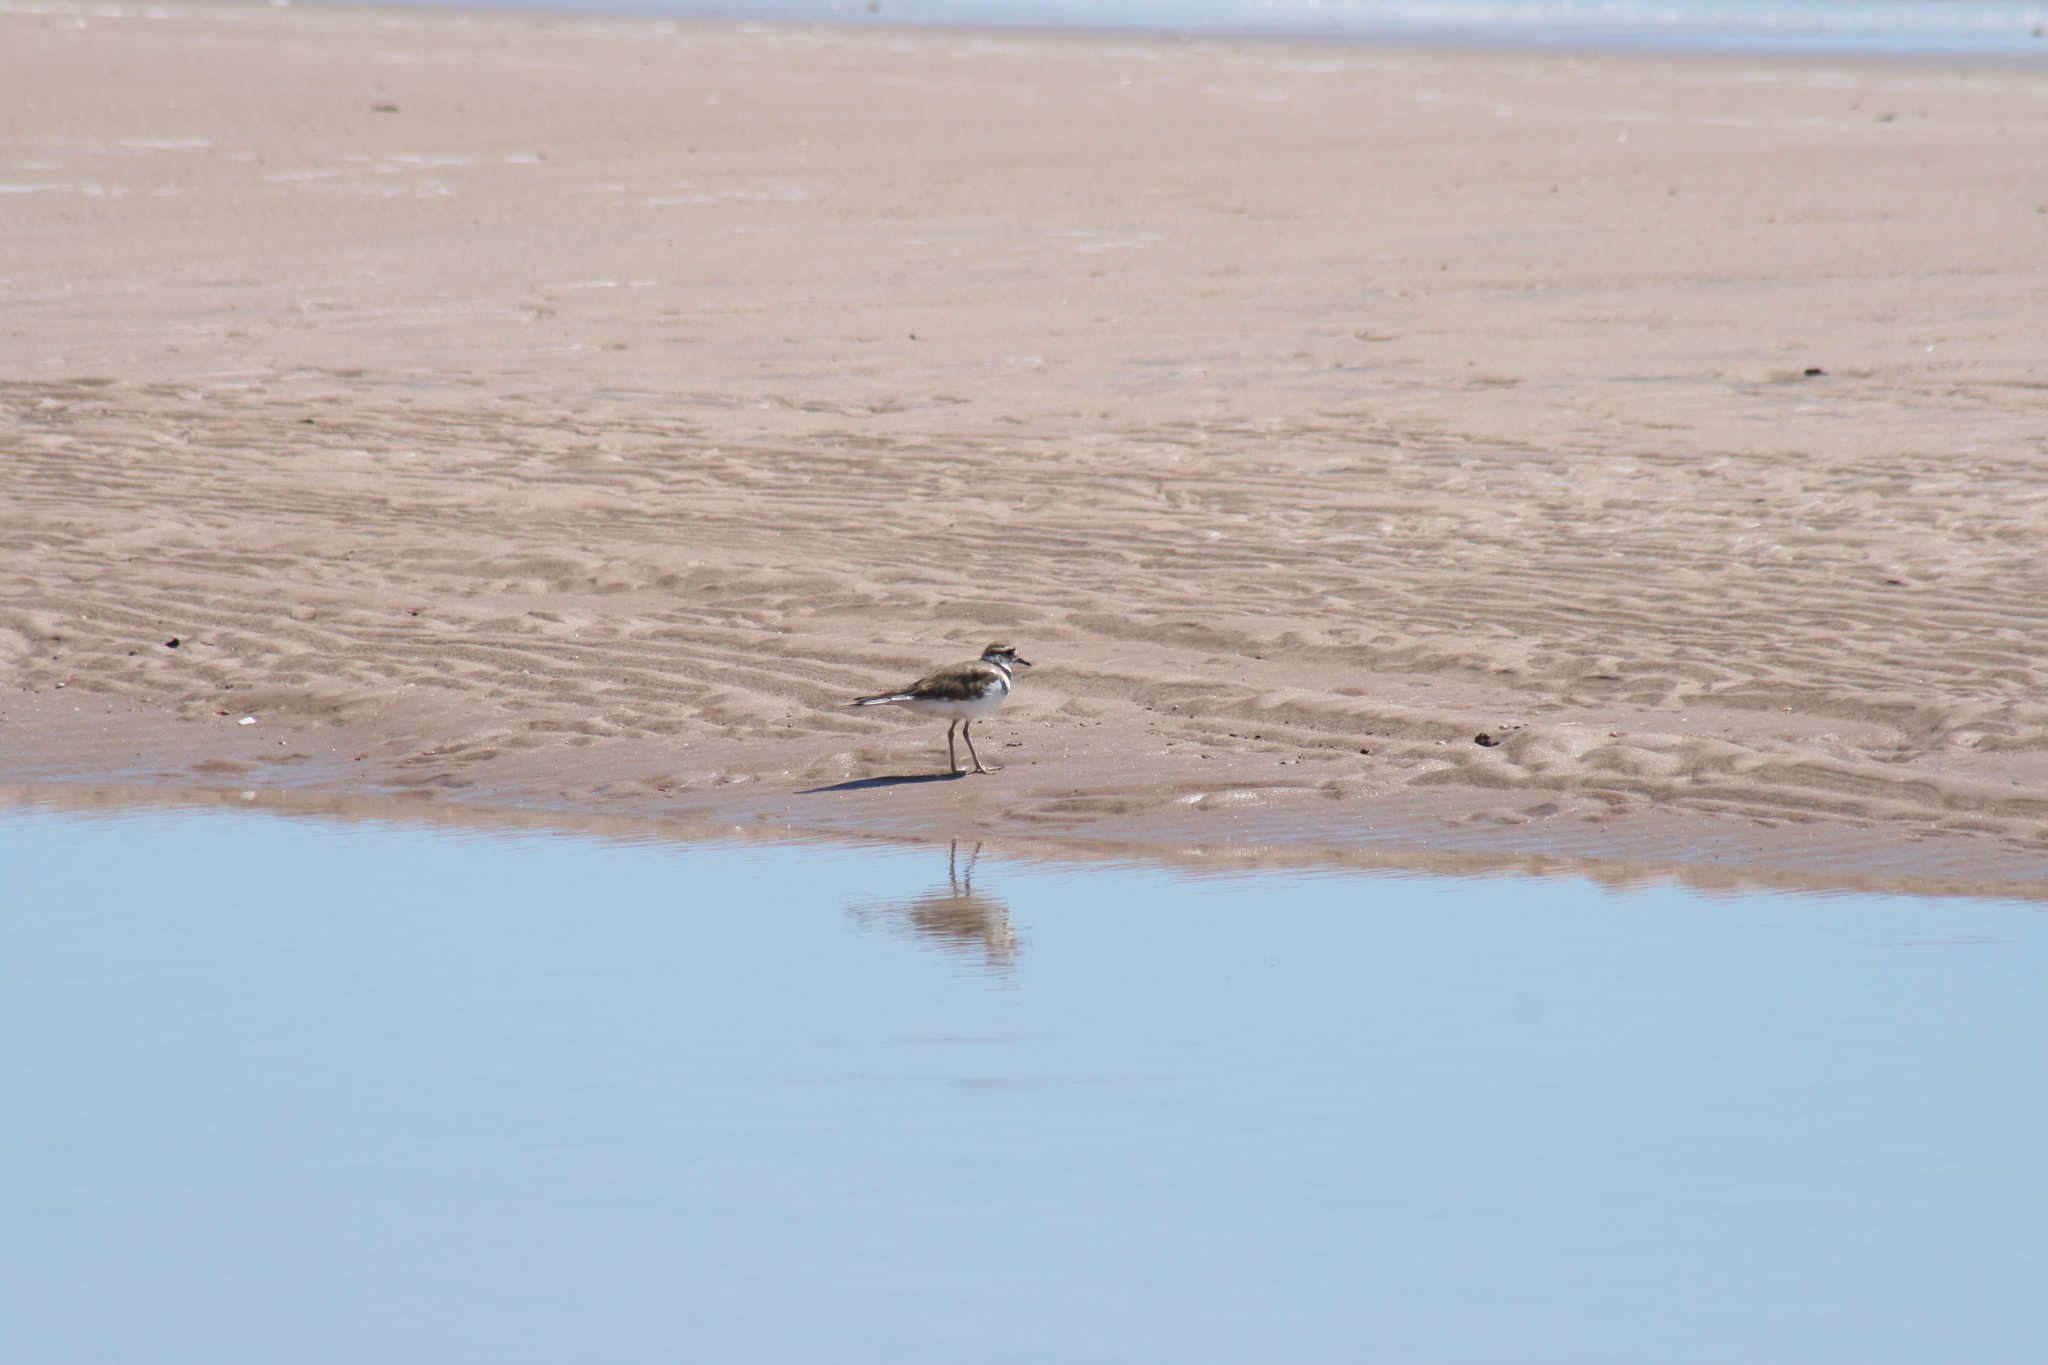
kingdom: Animalia
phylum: Chordata
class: Aves
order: Charadriiformes
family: Charadriidae
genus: Charadrius
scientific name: Charadrius vociferus
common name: Killdeer
